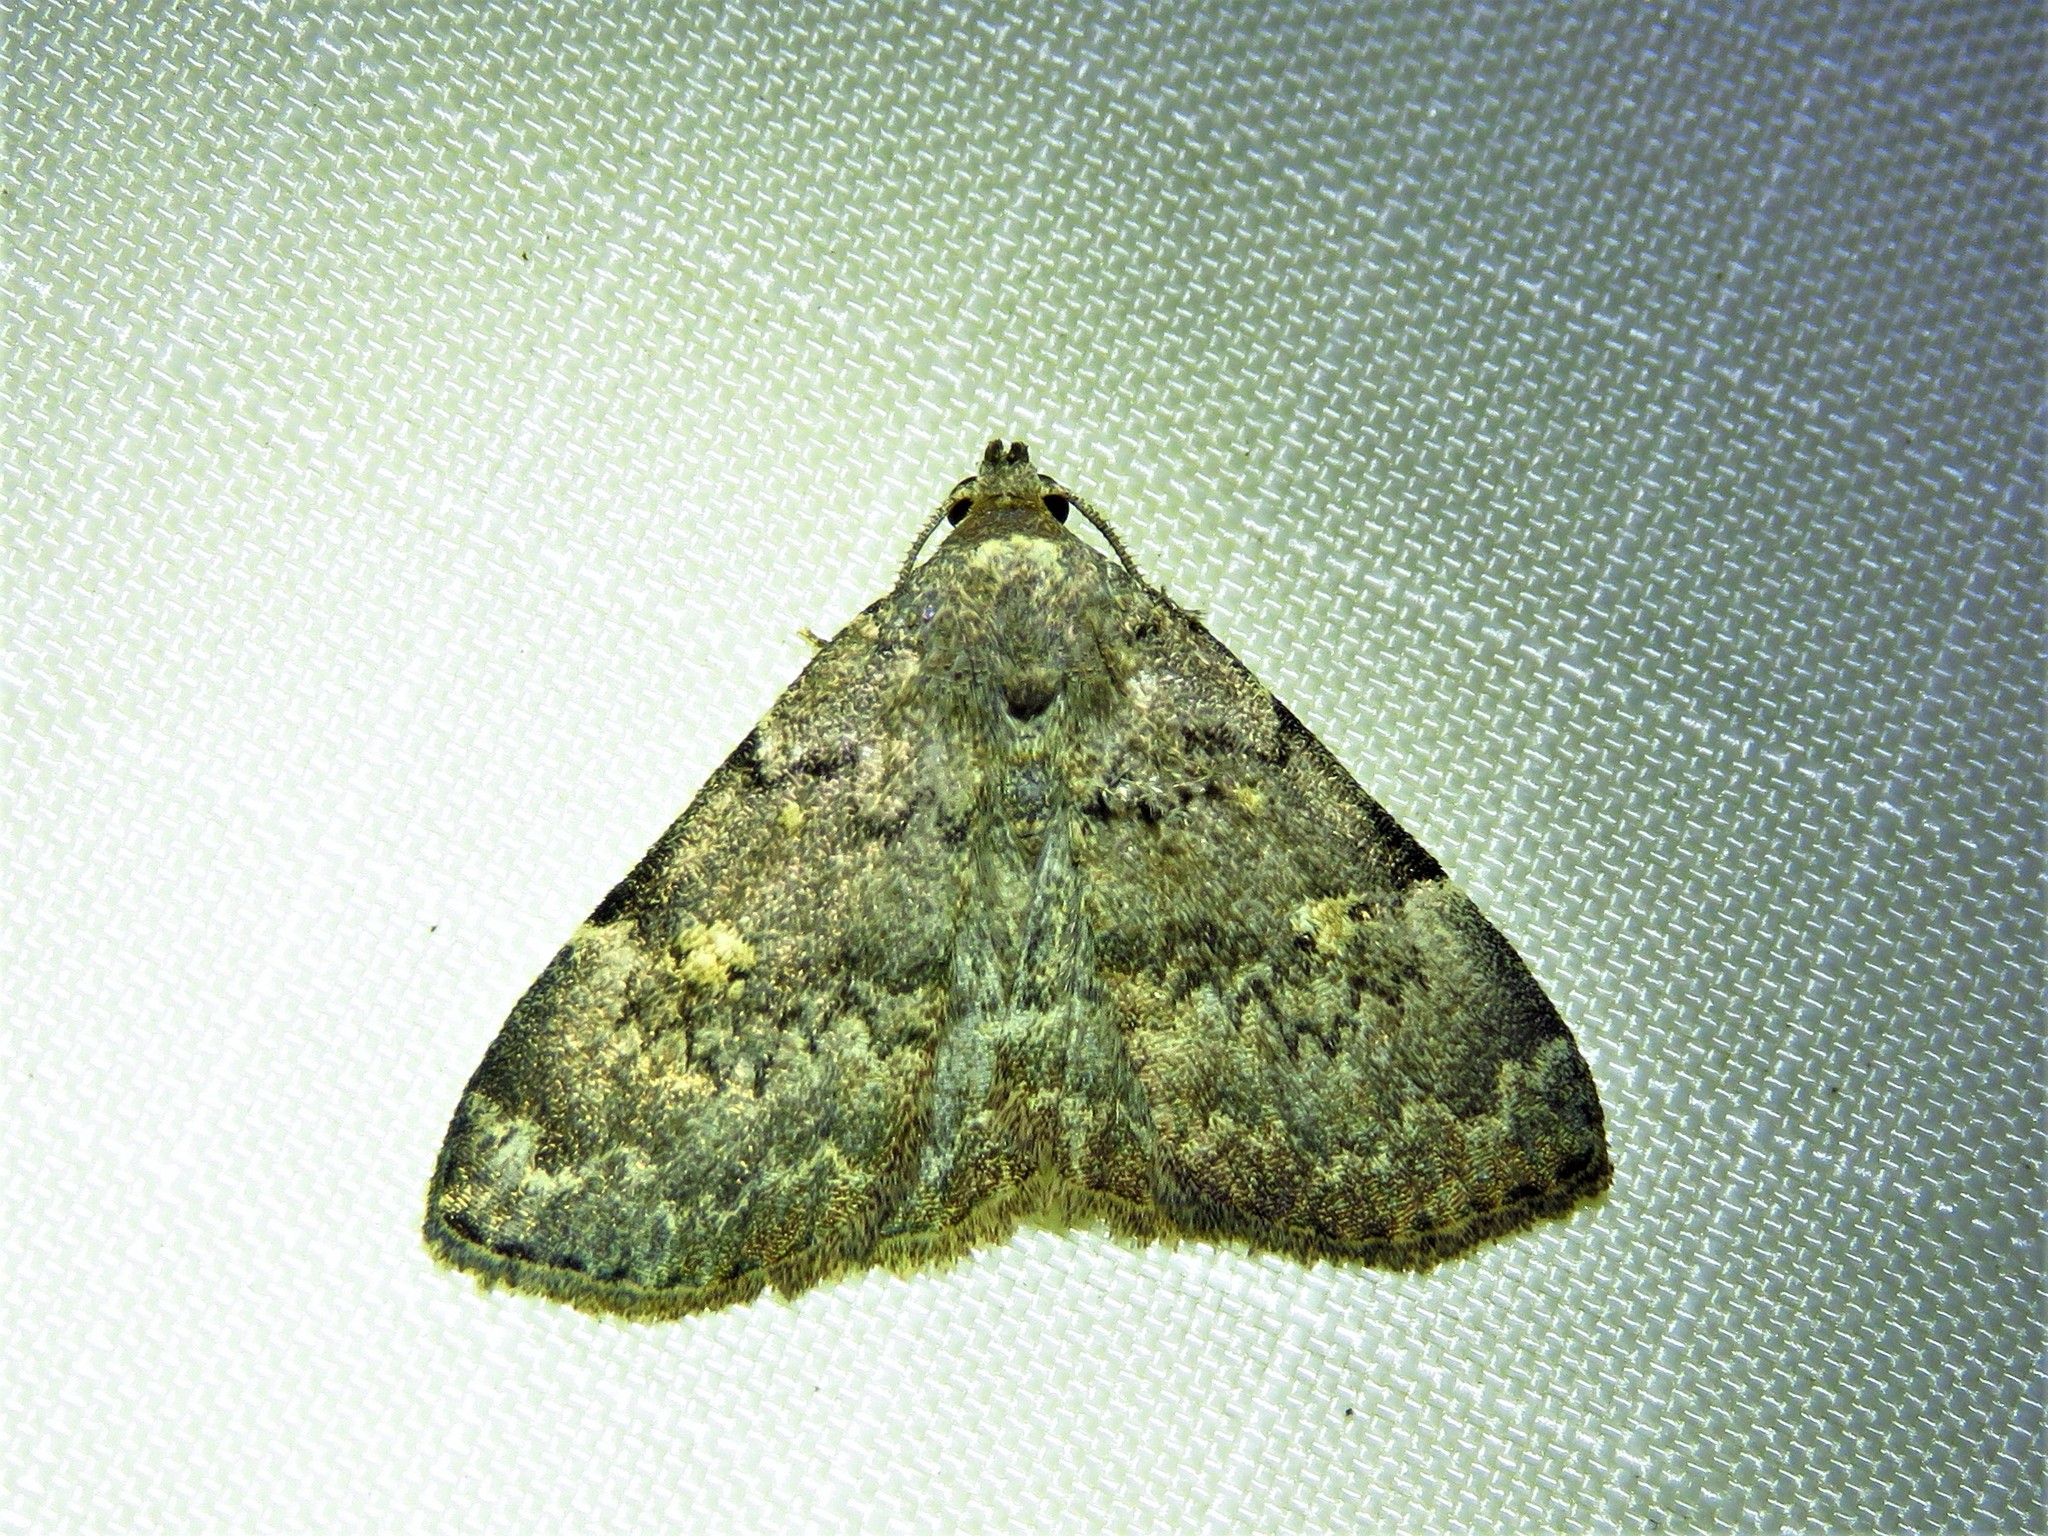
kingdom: Animalia
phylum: Arthropoda
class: Insecta
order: Lepidoptera
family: Erebidae
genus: Idia
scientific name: Idia aemula
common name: Common idia moth
